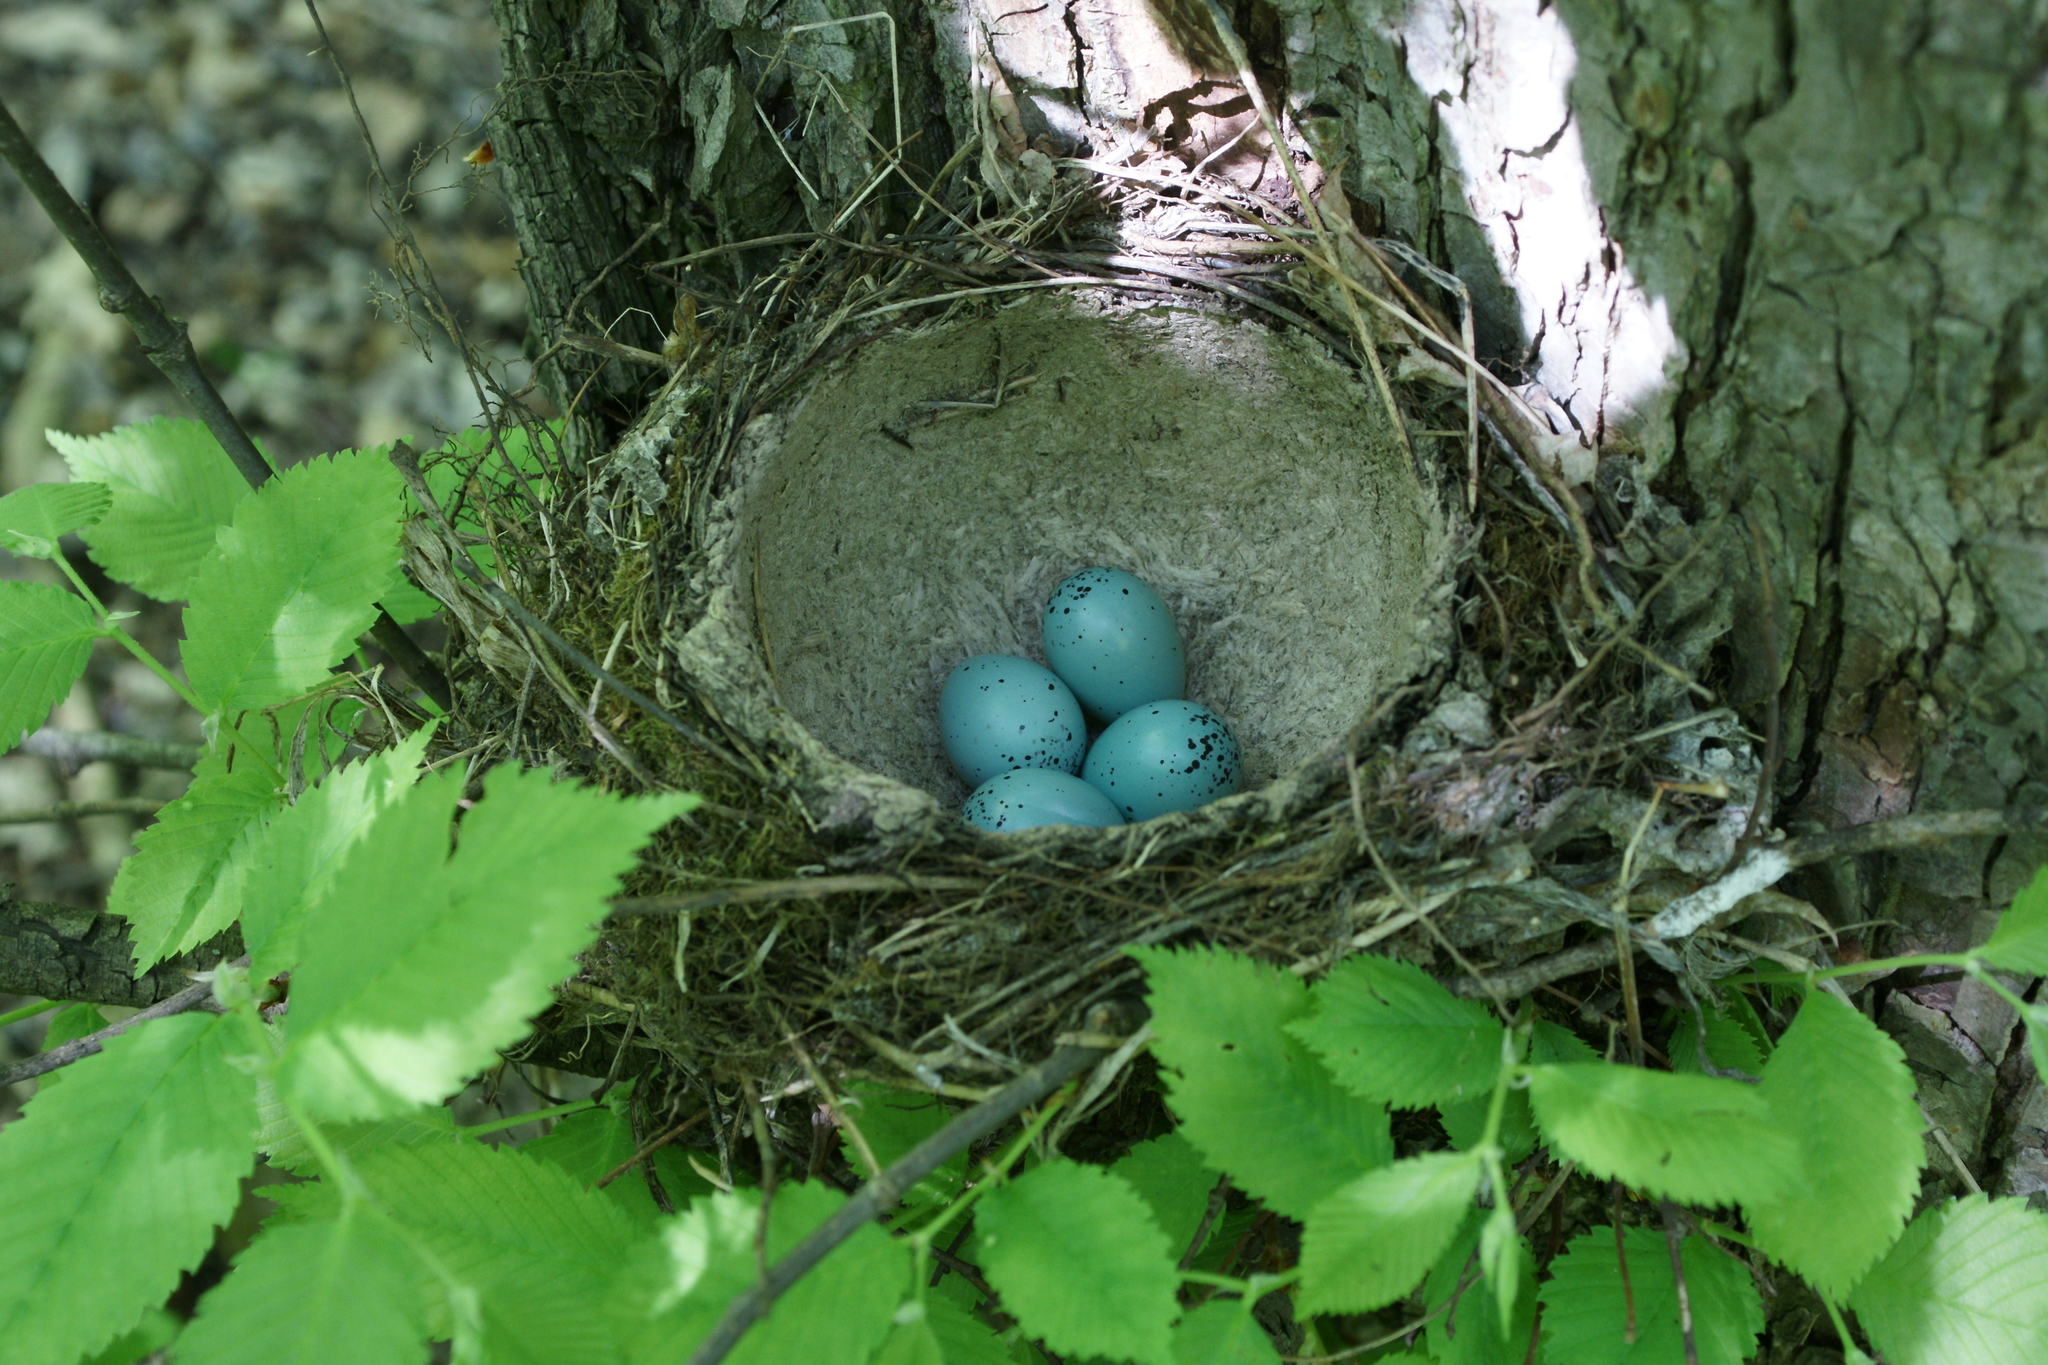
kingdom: Animalia
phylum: Chordata
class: Aves
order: Passeriformes
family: Turdidae
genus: Turdus
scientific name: Turdus philomelos
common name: Song thrush
